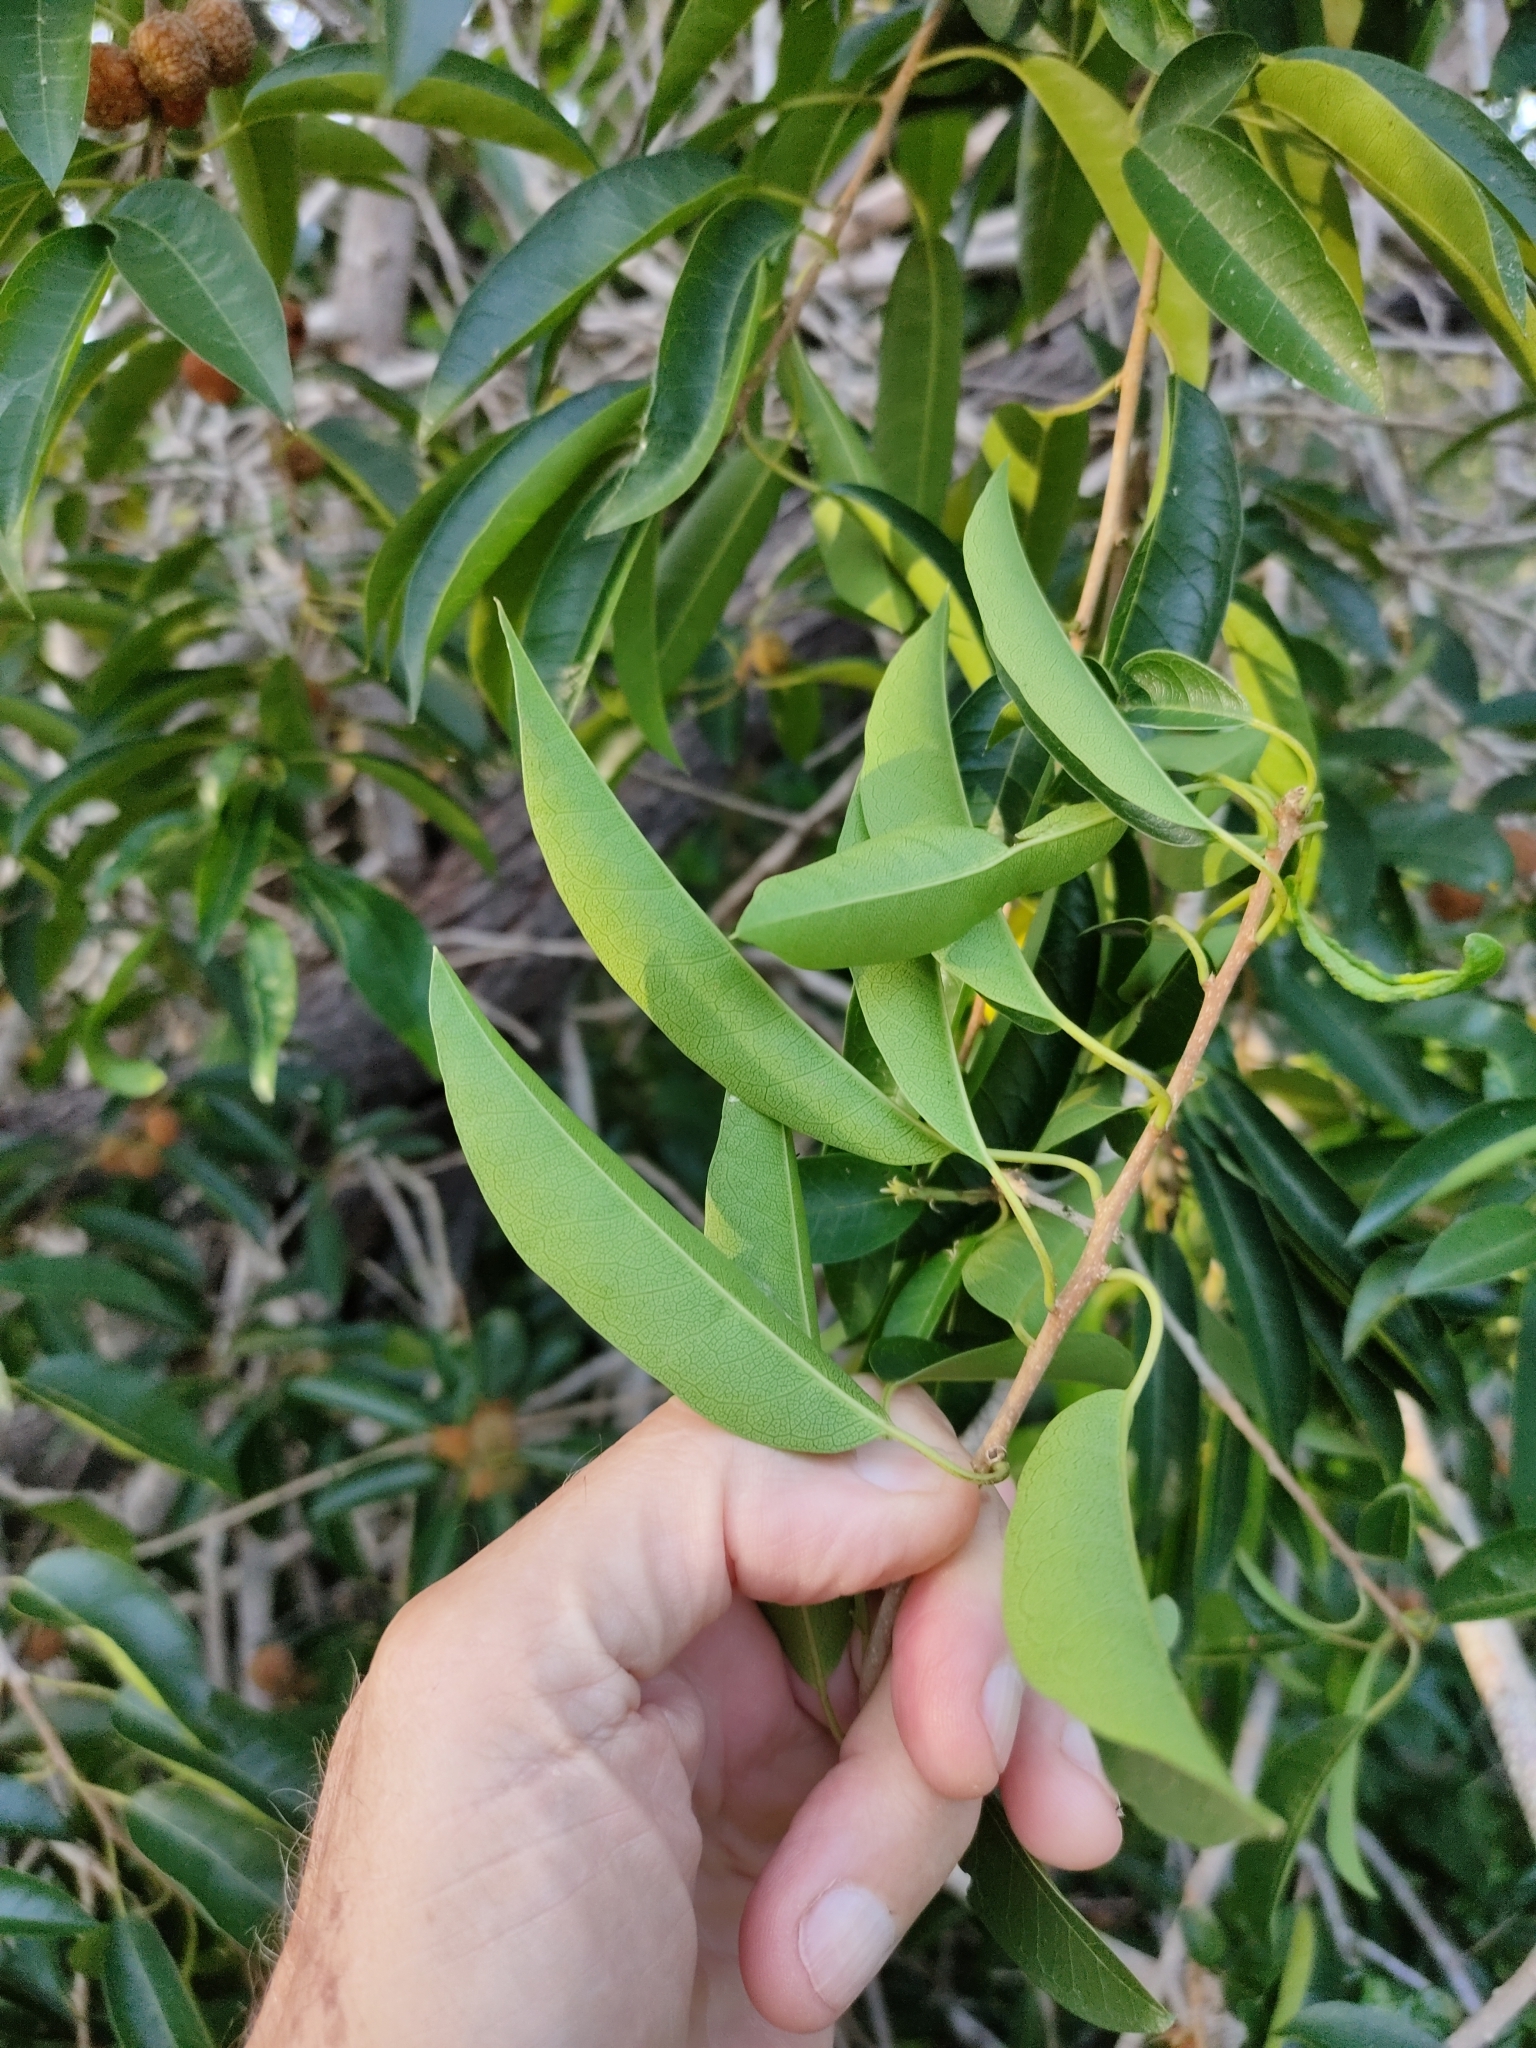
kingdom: Plantae
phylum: Tracheophyta
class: Magnoliopsida
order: Rosales
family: Moraceae
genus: Maclura
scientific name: Maclura cochinchinensis
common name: Cockspurthorn
